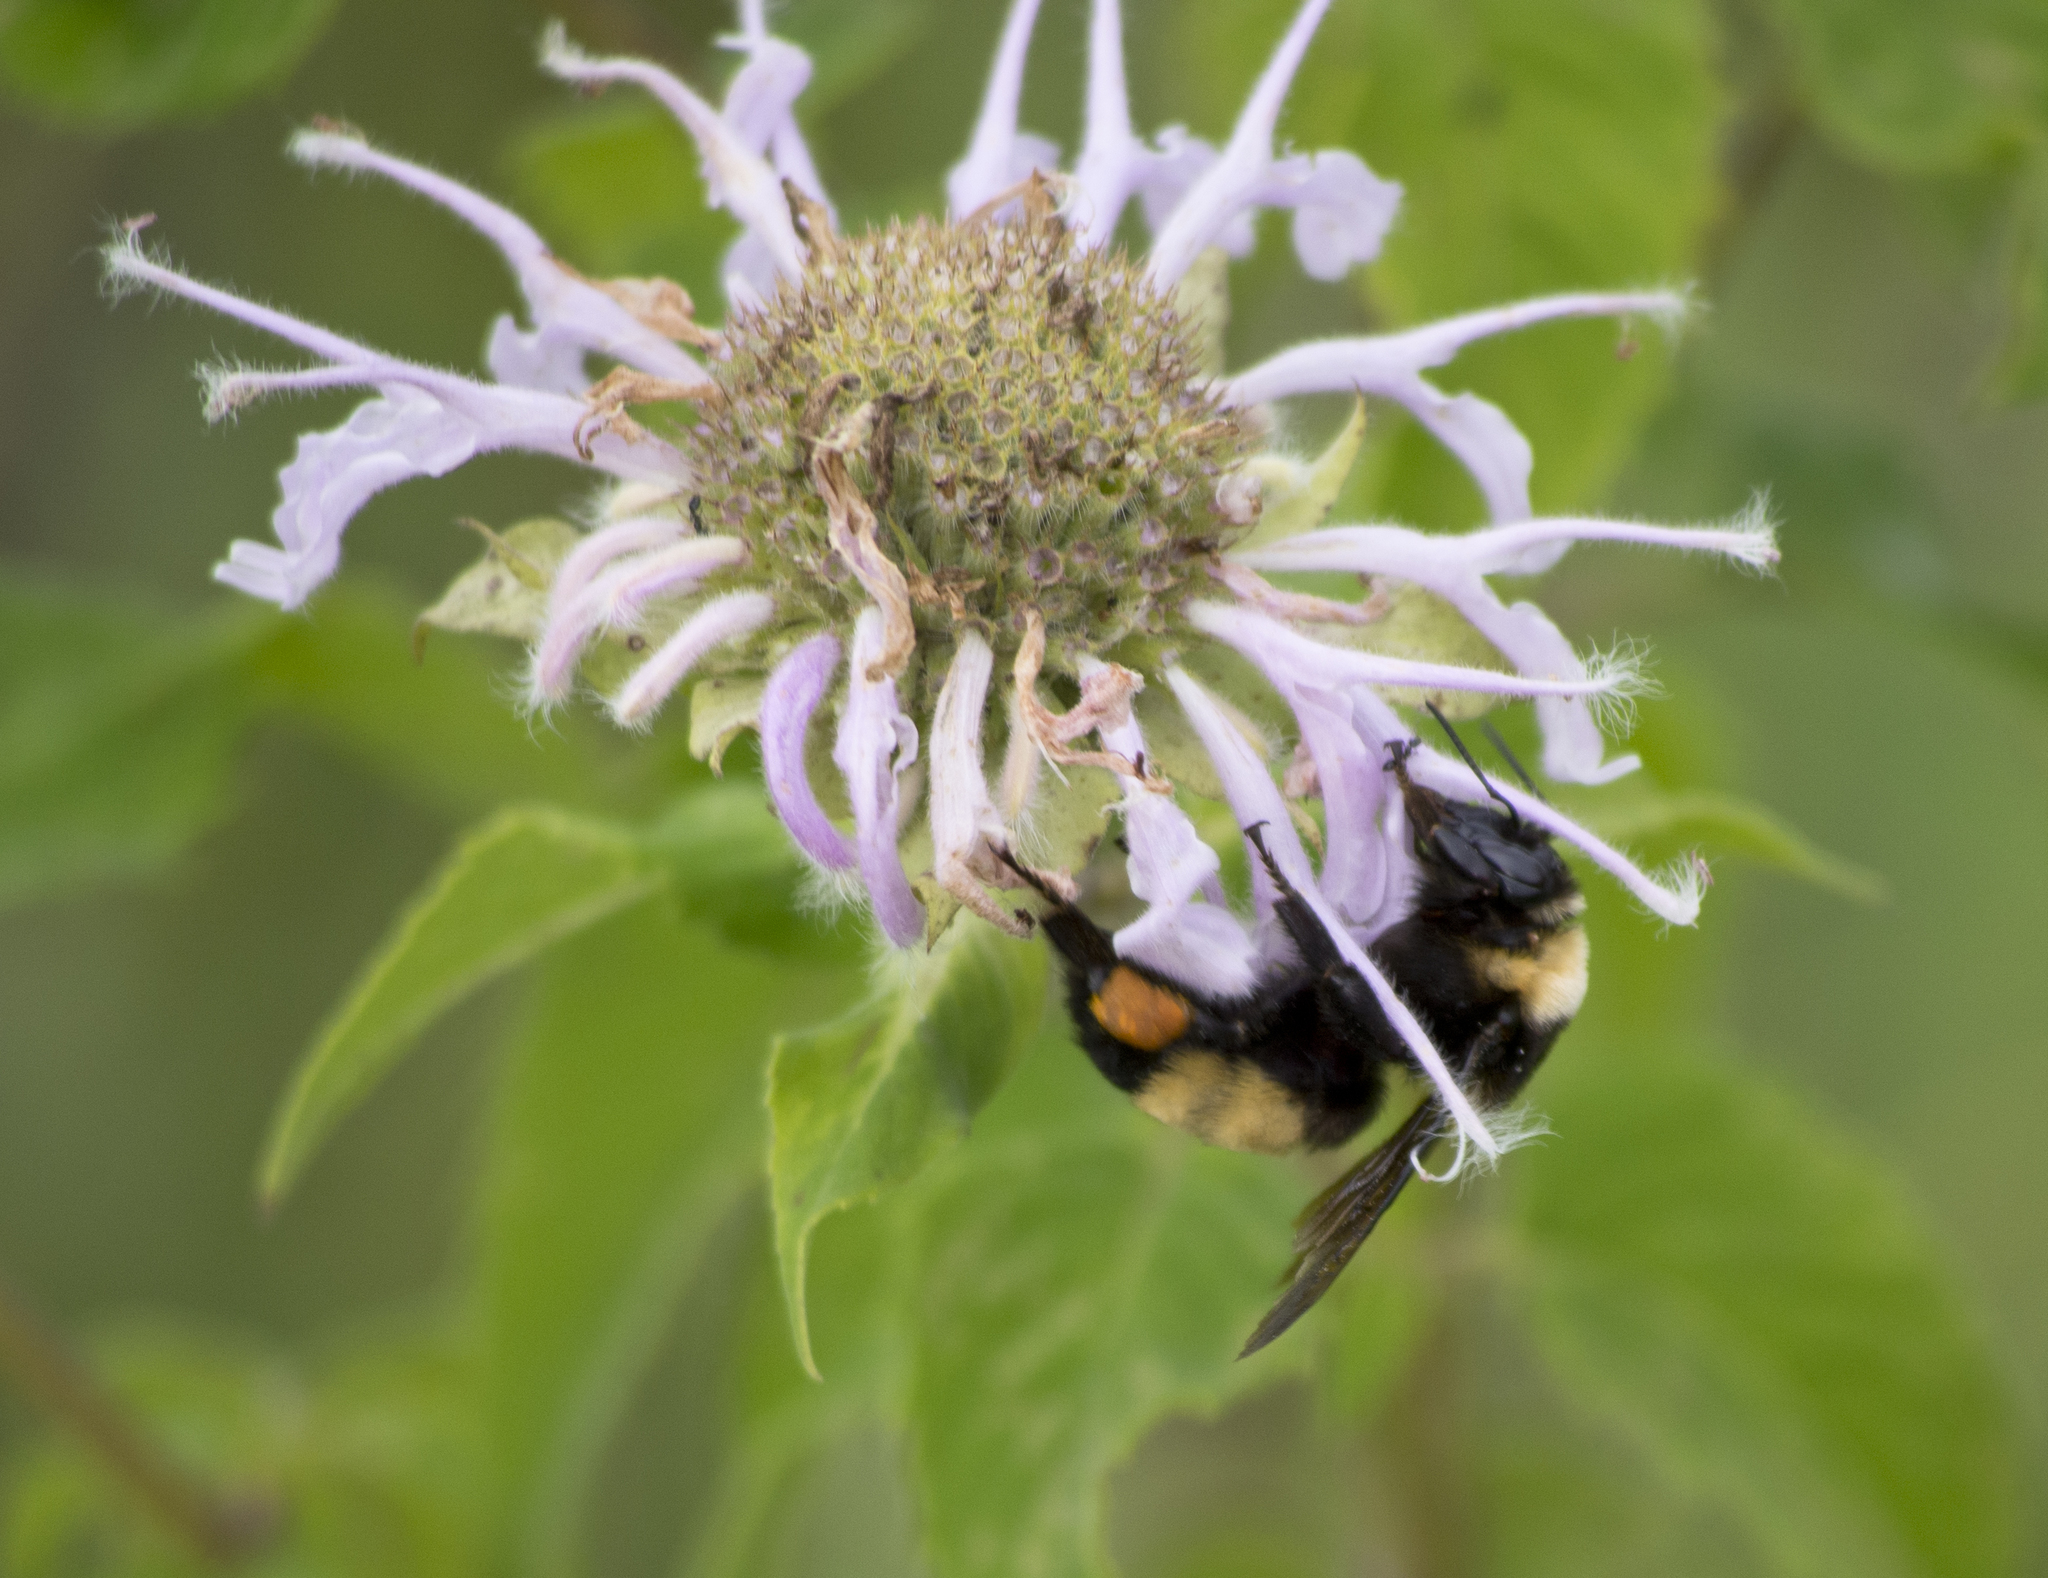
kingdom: Animalia
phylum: Arthropoda
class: Insecta
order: Hymenoptera
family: Apidae
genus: Bombus
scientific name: Bombus auricomus
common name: Black and gold bumble bee
